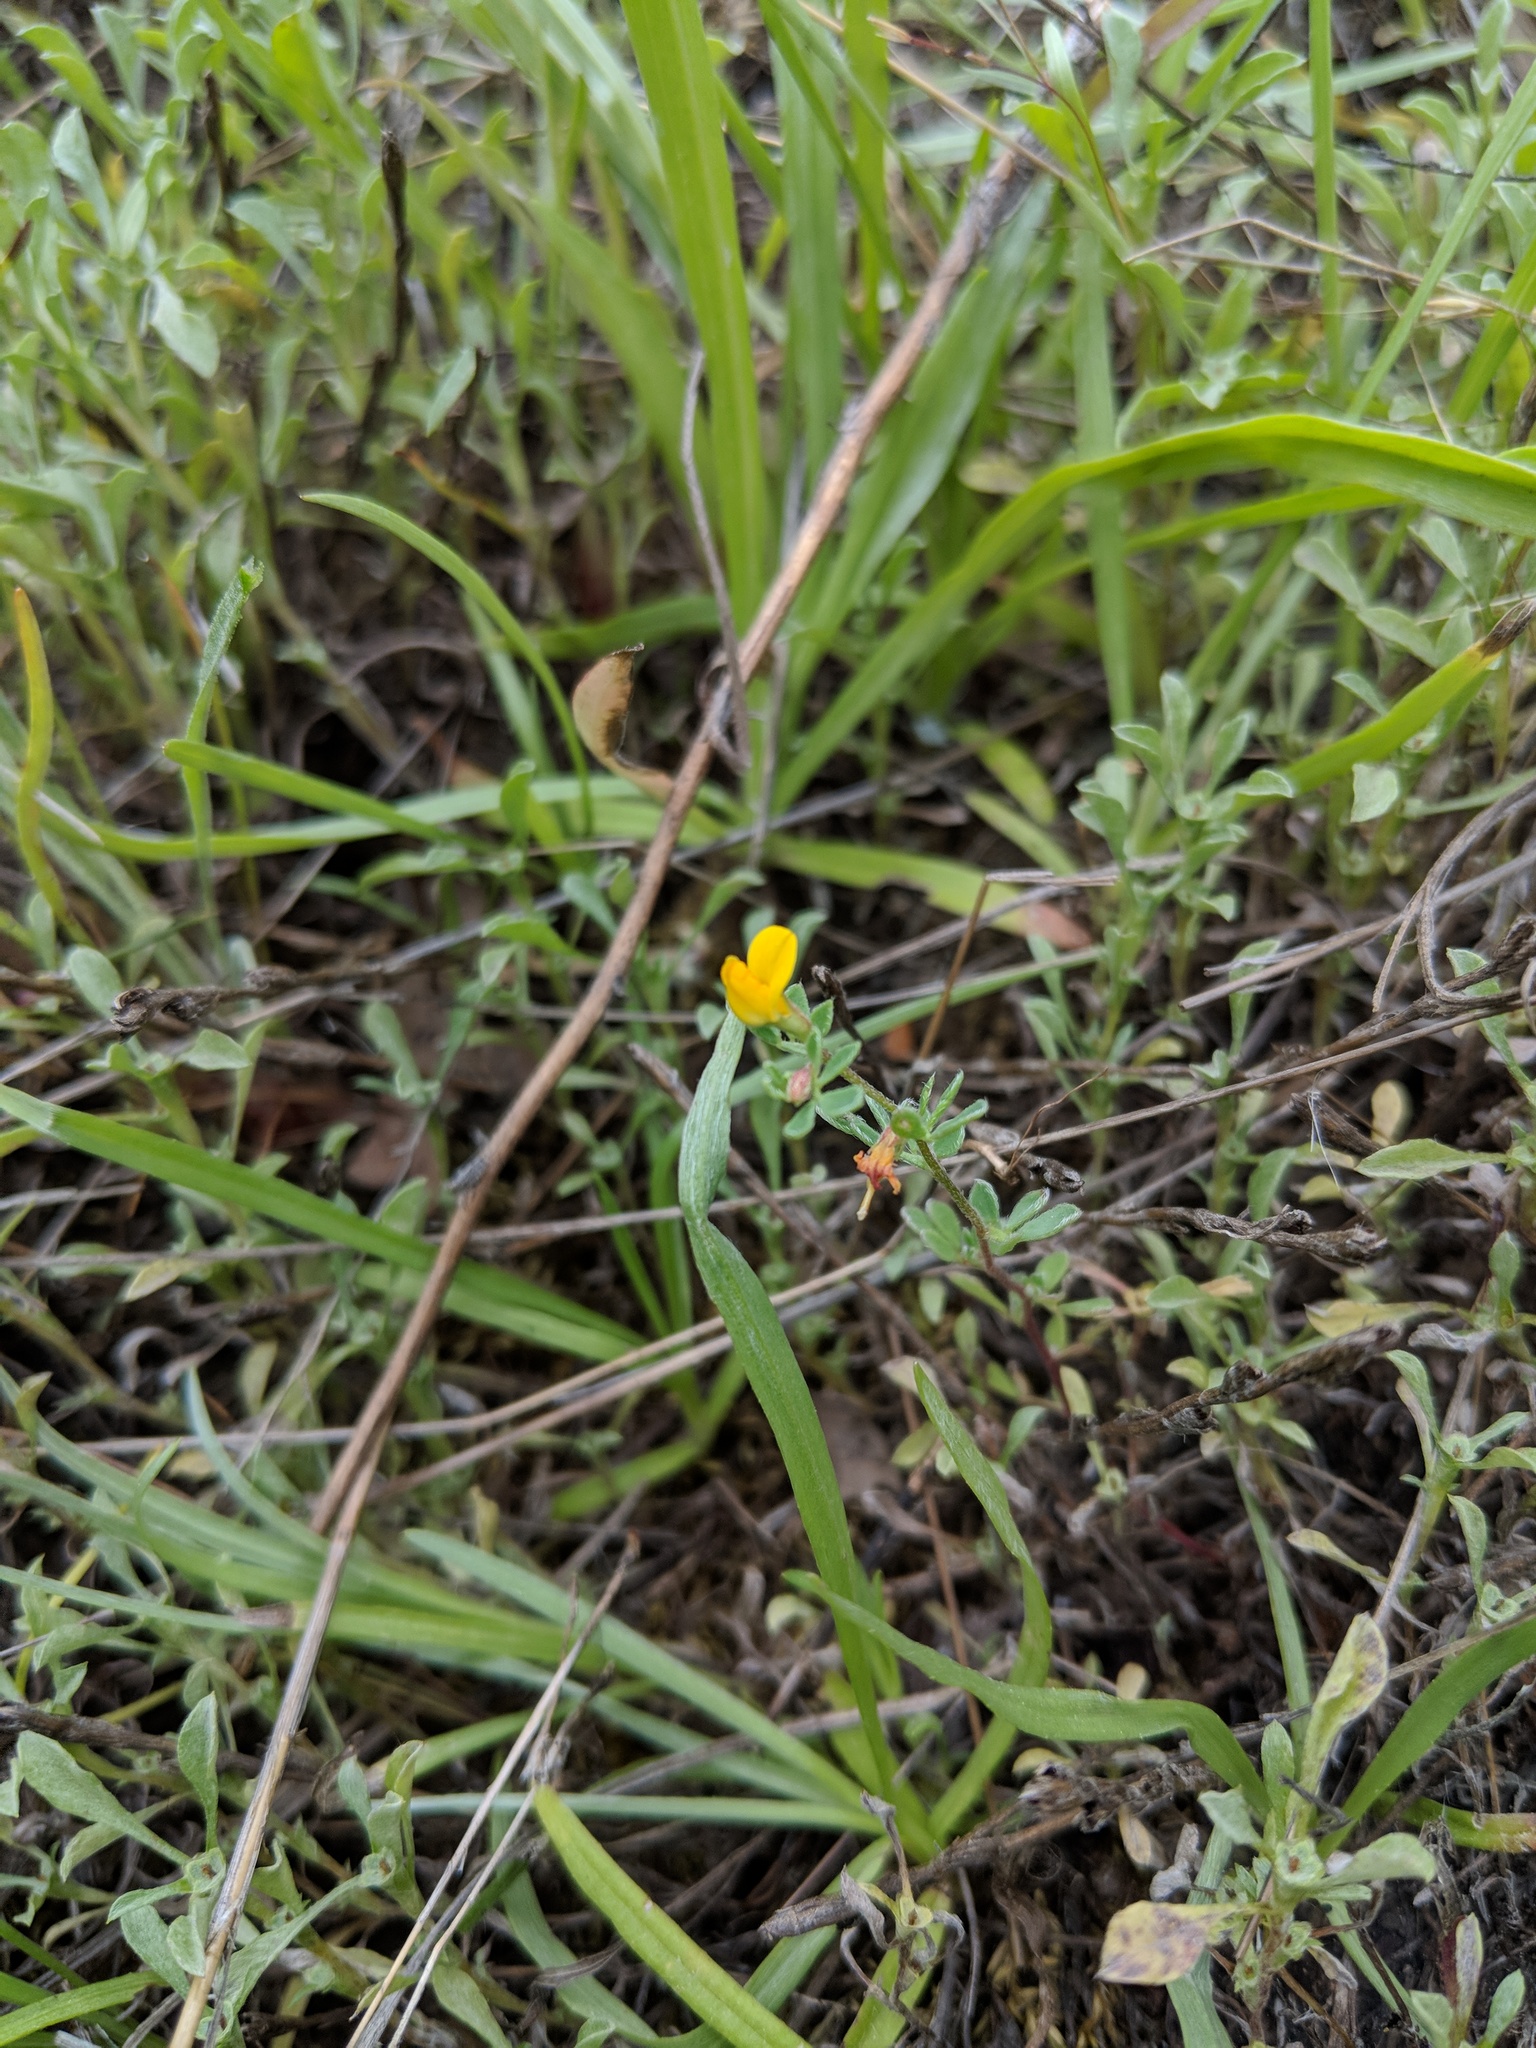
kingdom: Plantae
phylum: Tracheophyta
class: Magnoliopsida
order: Fabales
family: Fabaceae
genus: Acmispon
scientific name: Acmispon wrangelianus
